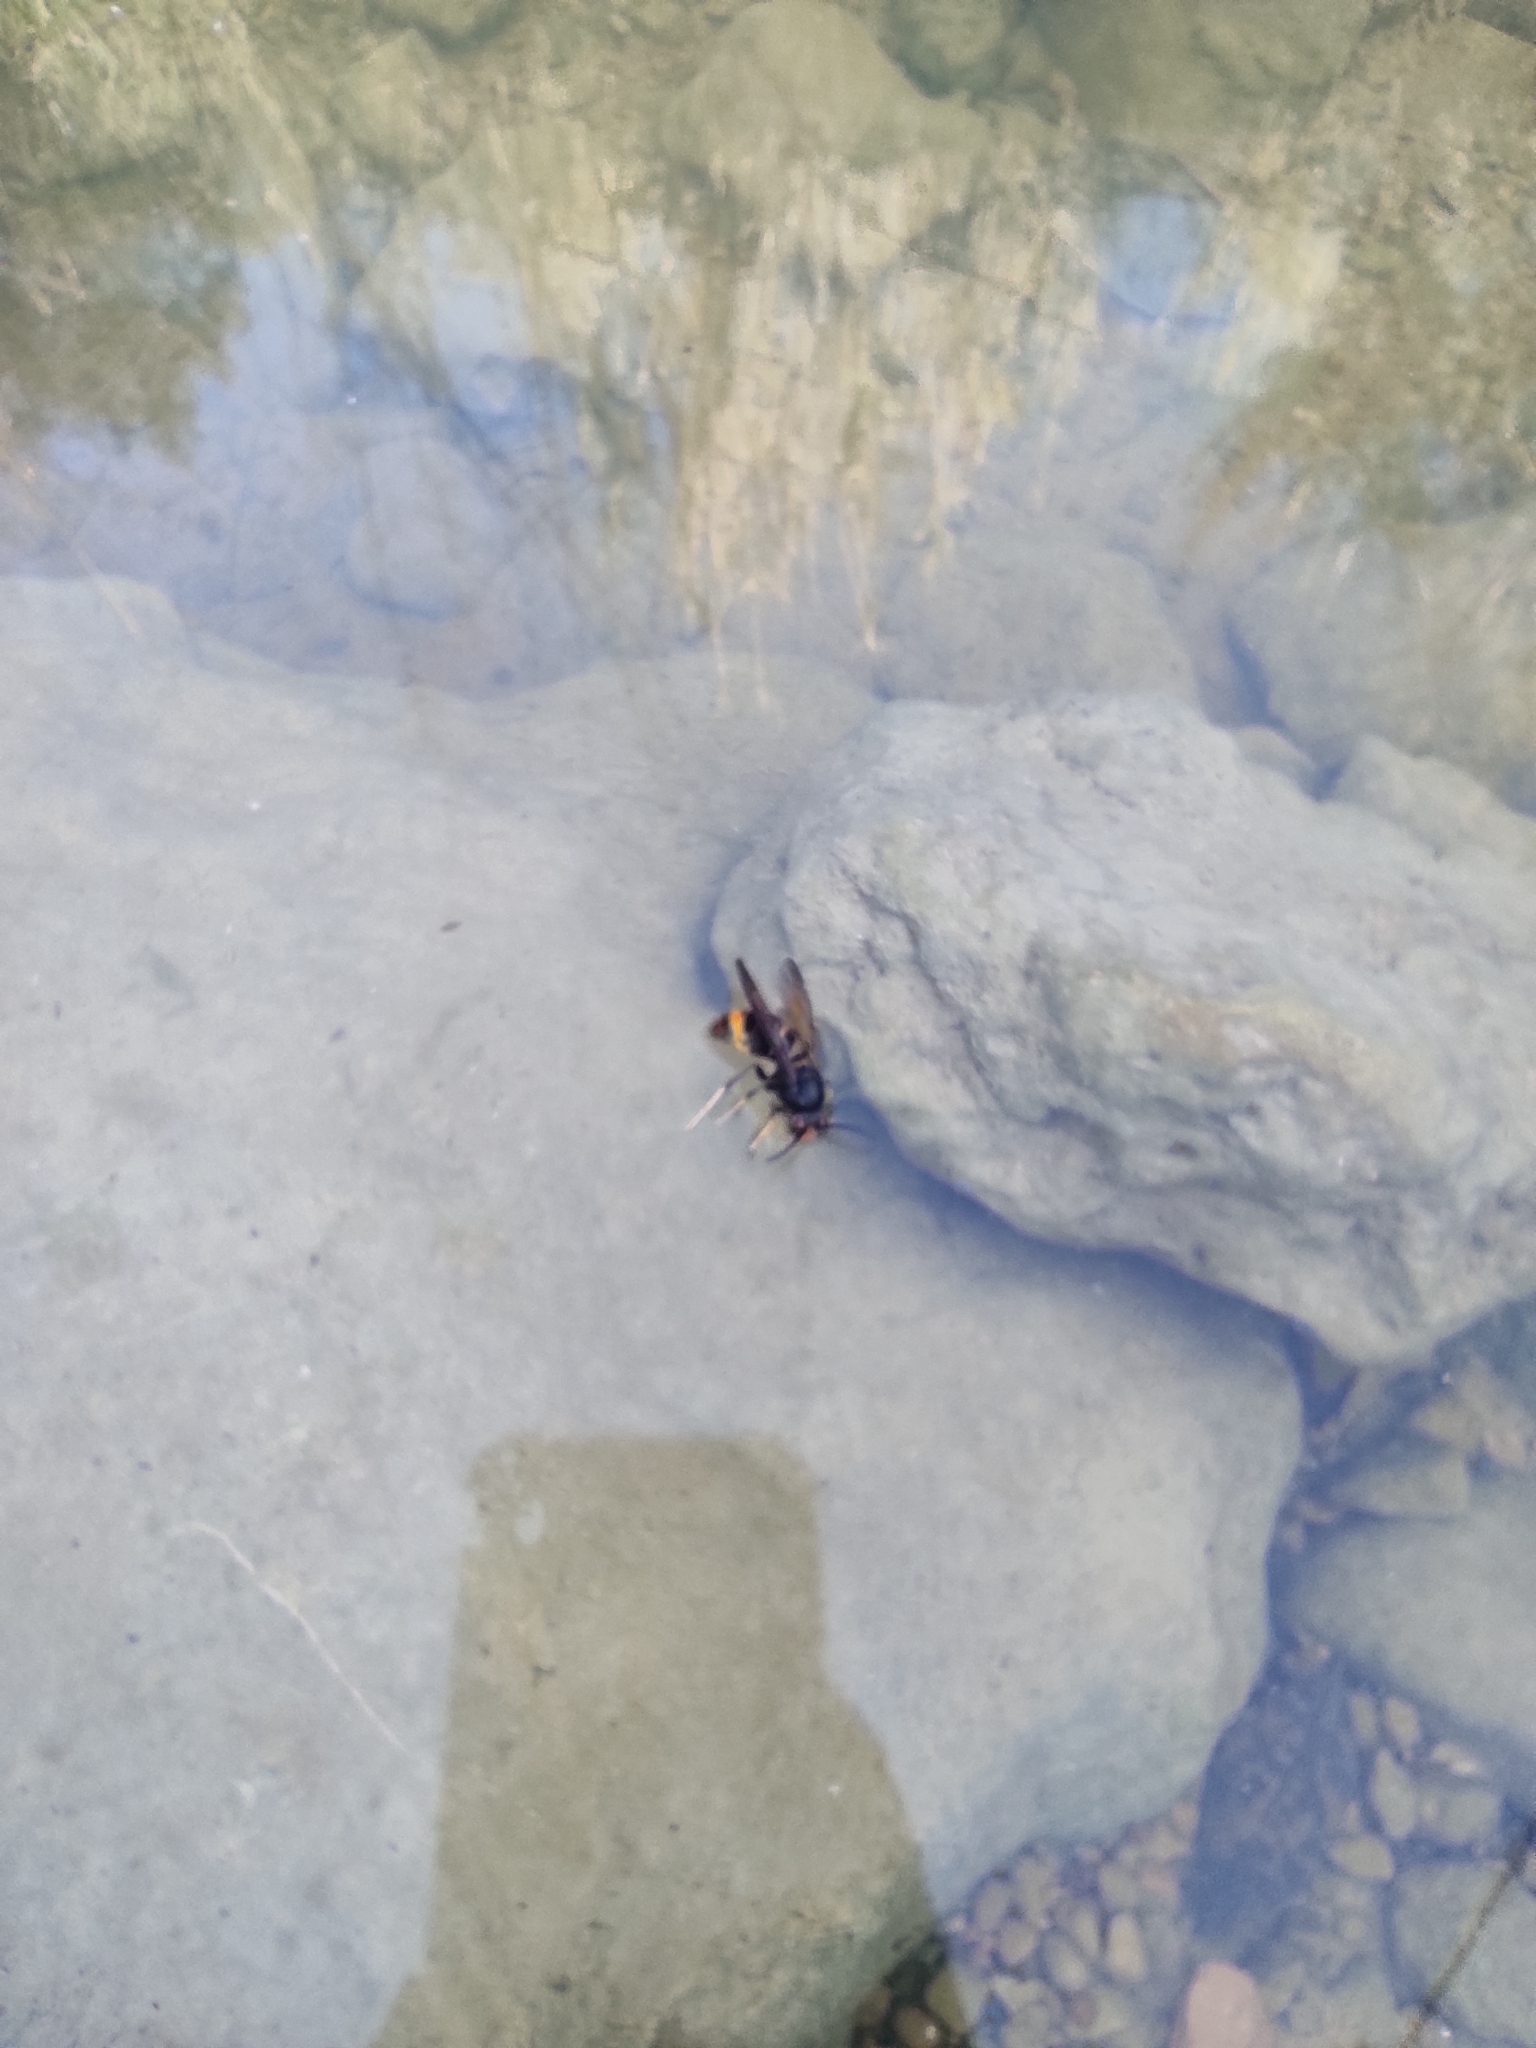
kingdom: Animalia
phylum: Arthropoda
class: Insecta
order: Hymenoptera
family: Vespidae
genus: Vespa
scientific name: Vespa velutina
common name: Asian hornet
